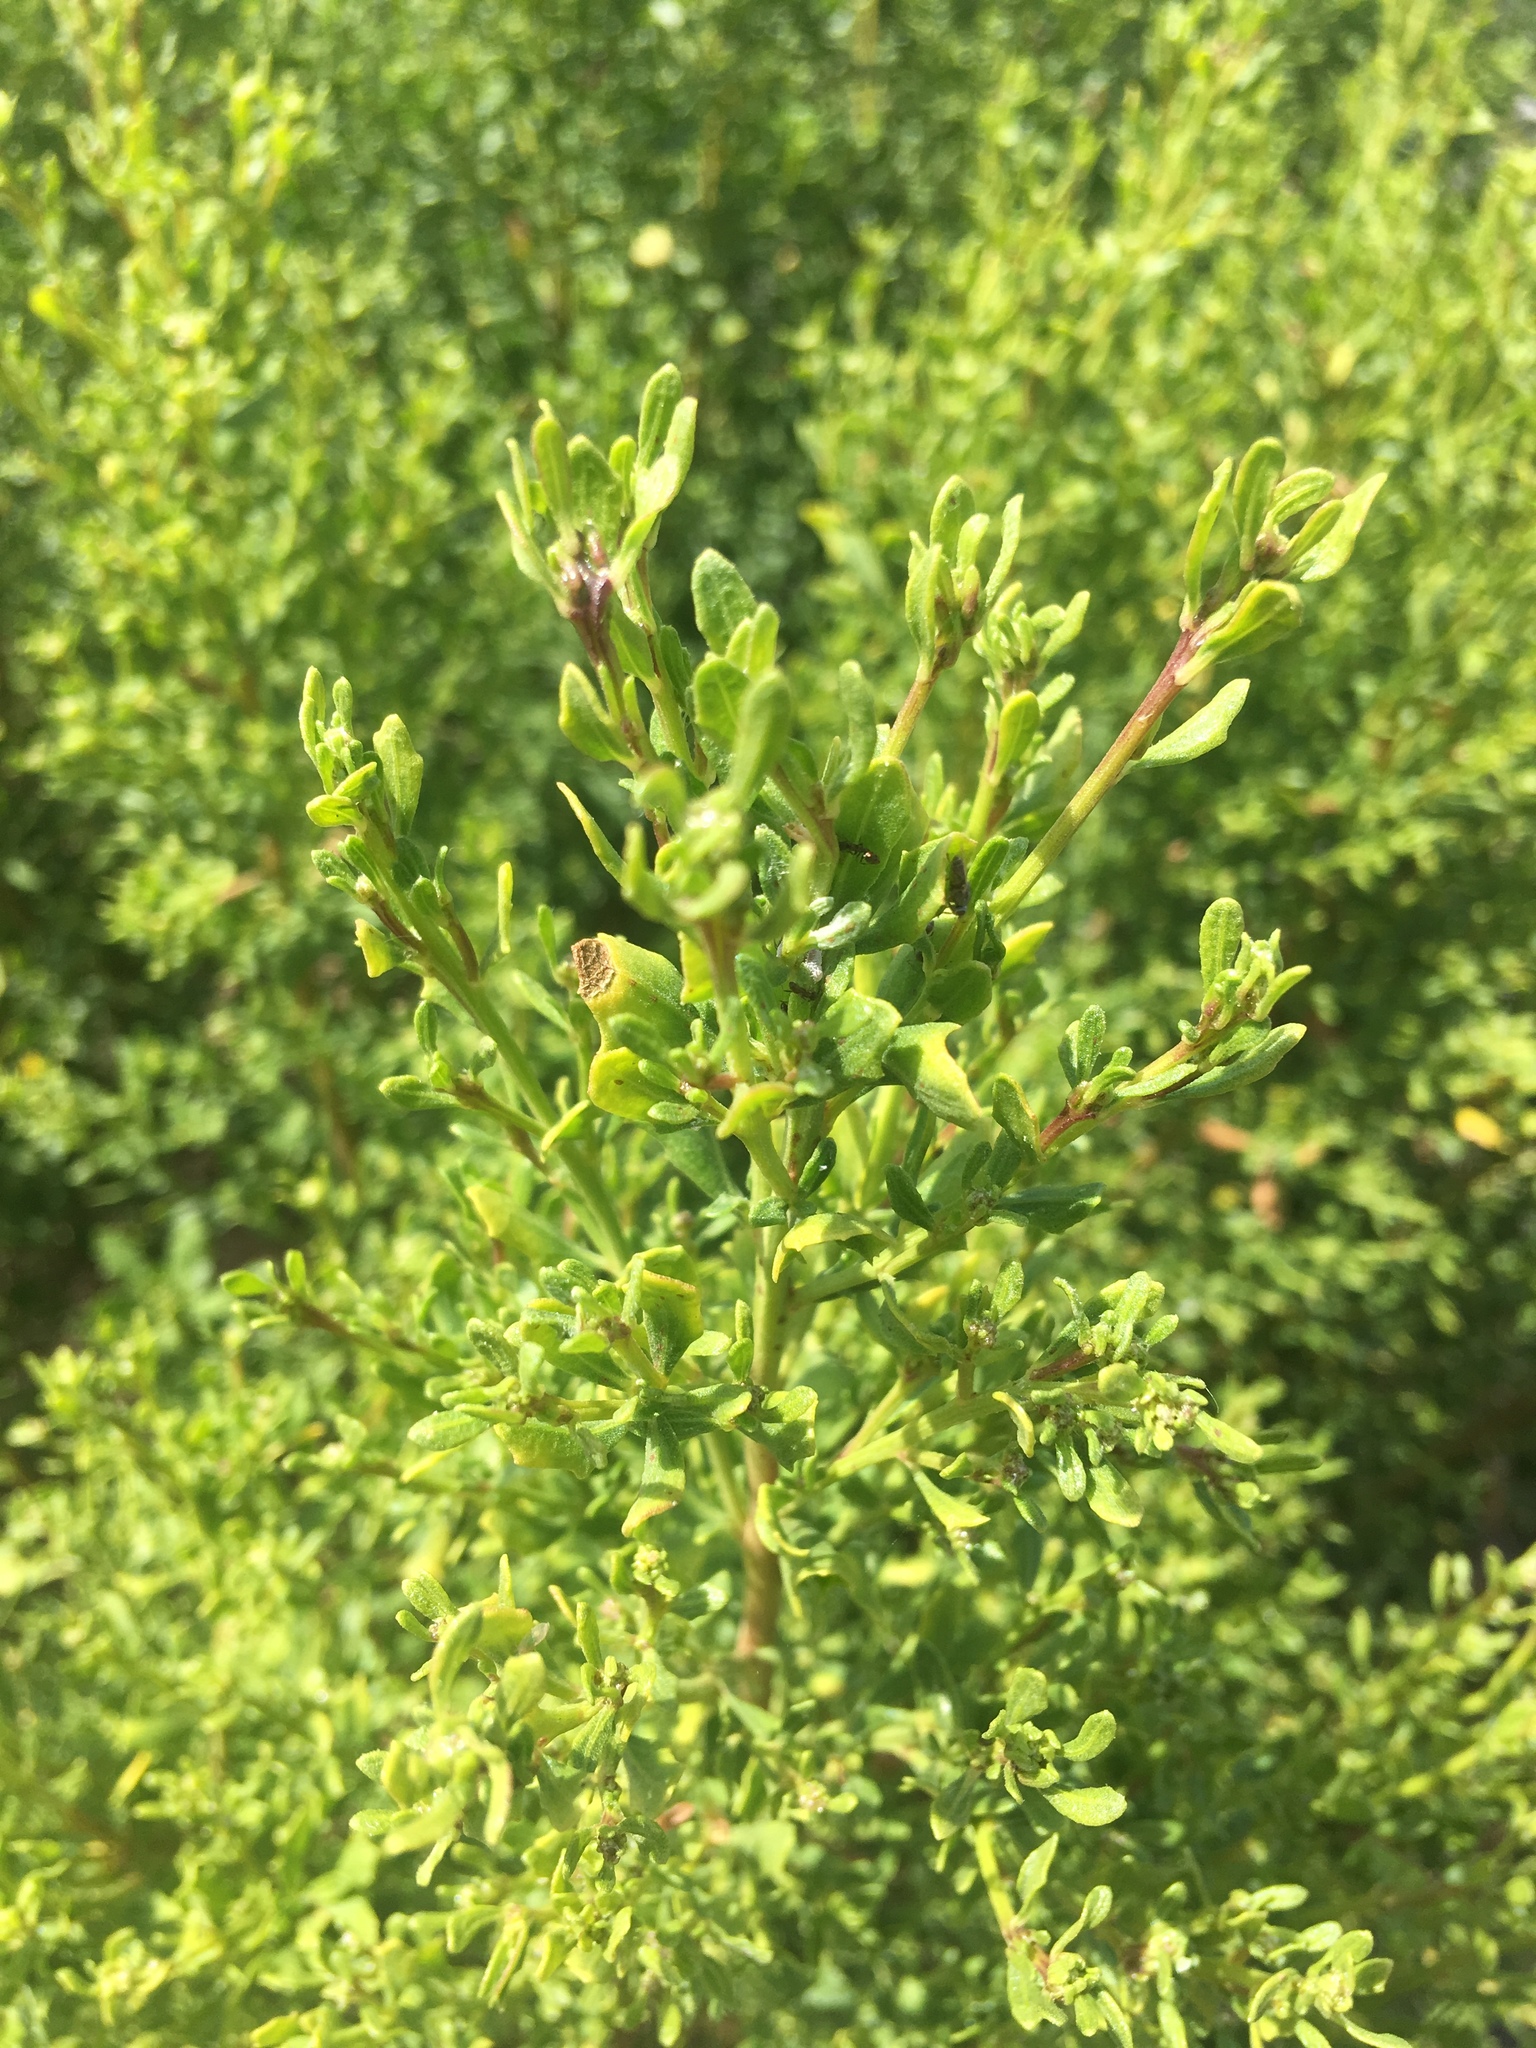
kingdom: Plantae
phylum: Tracheophyta
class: Magnoliopsida
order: Asterales
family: Asteraceae
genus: Baccharis
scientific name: Baccharis pilularis
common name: Coyotebrush
